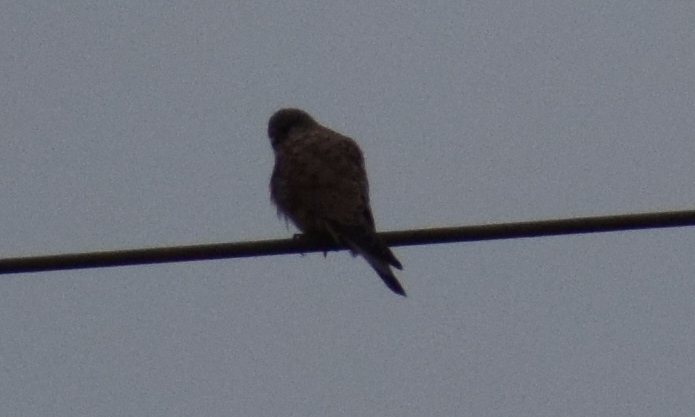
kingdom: Animalia
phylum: Chordata
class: Aves
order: Falconiformes
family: Falconidae
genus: Falco
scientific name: Falco tinnunculus
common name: Common kestrel
